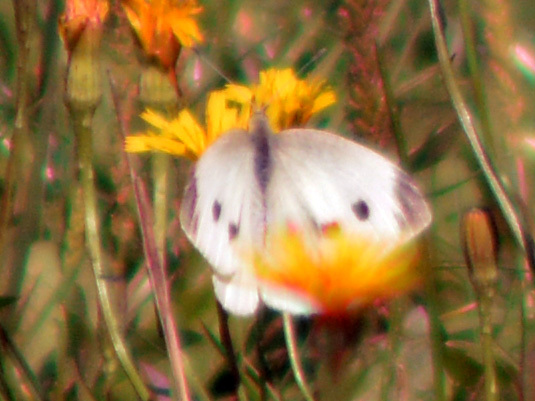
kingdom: Animalia
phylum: Arthropoda
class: Insecta
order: Lepidoptera
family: Pieridae
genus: Pieris
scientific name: Pieris rapae
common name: Small white
